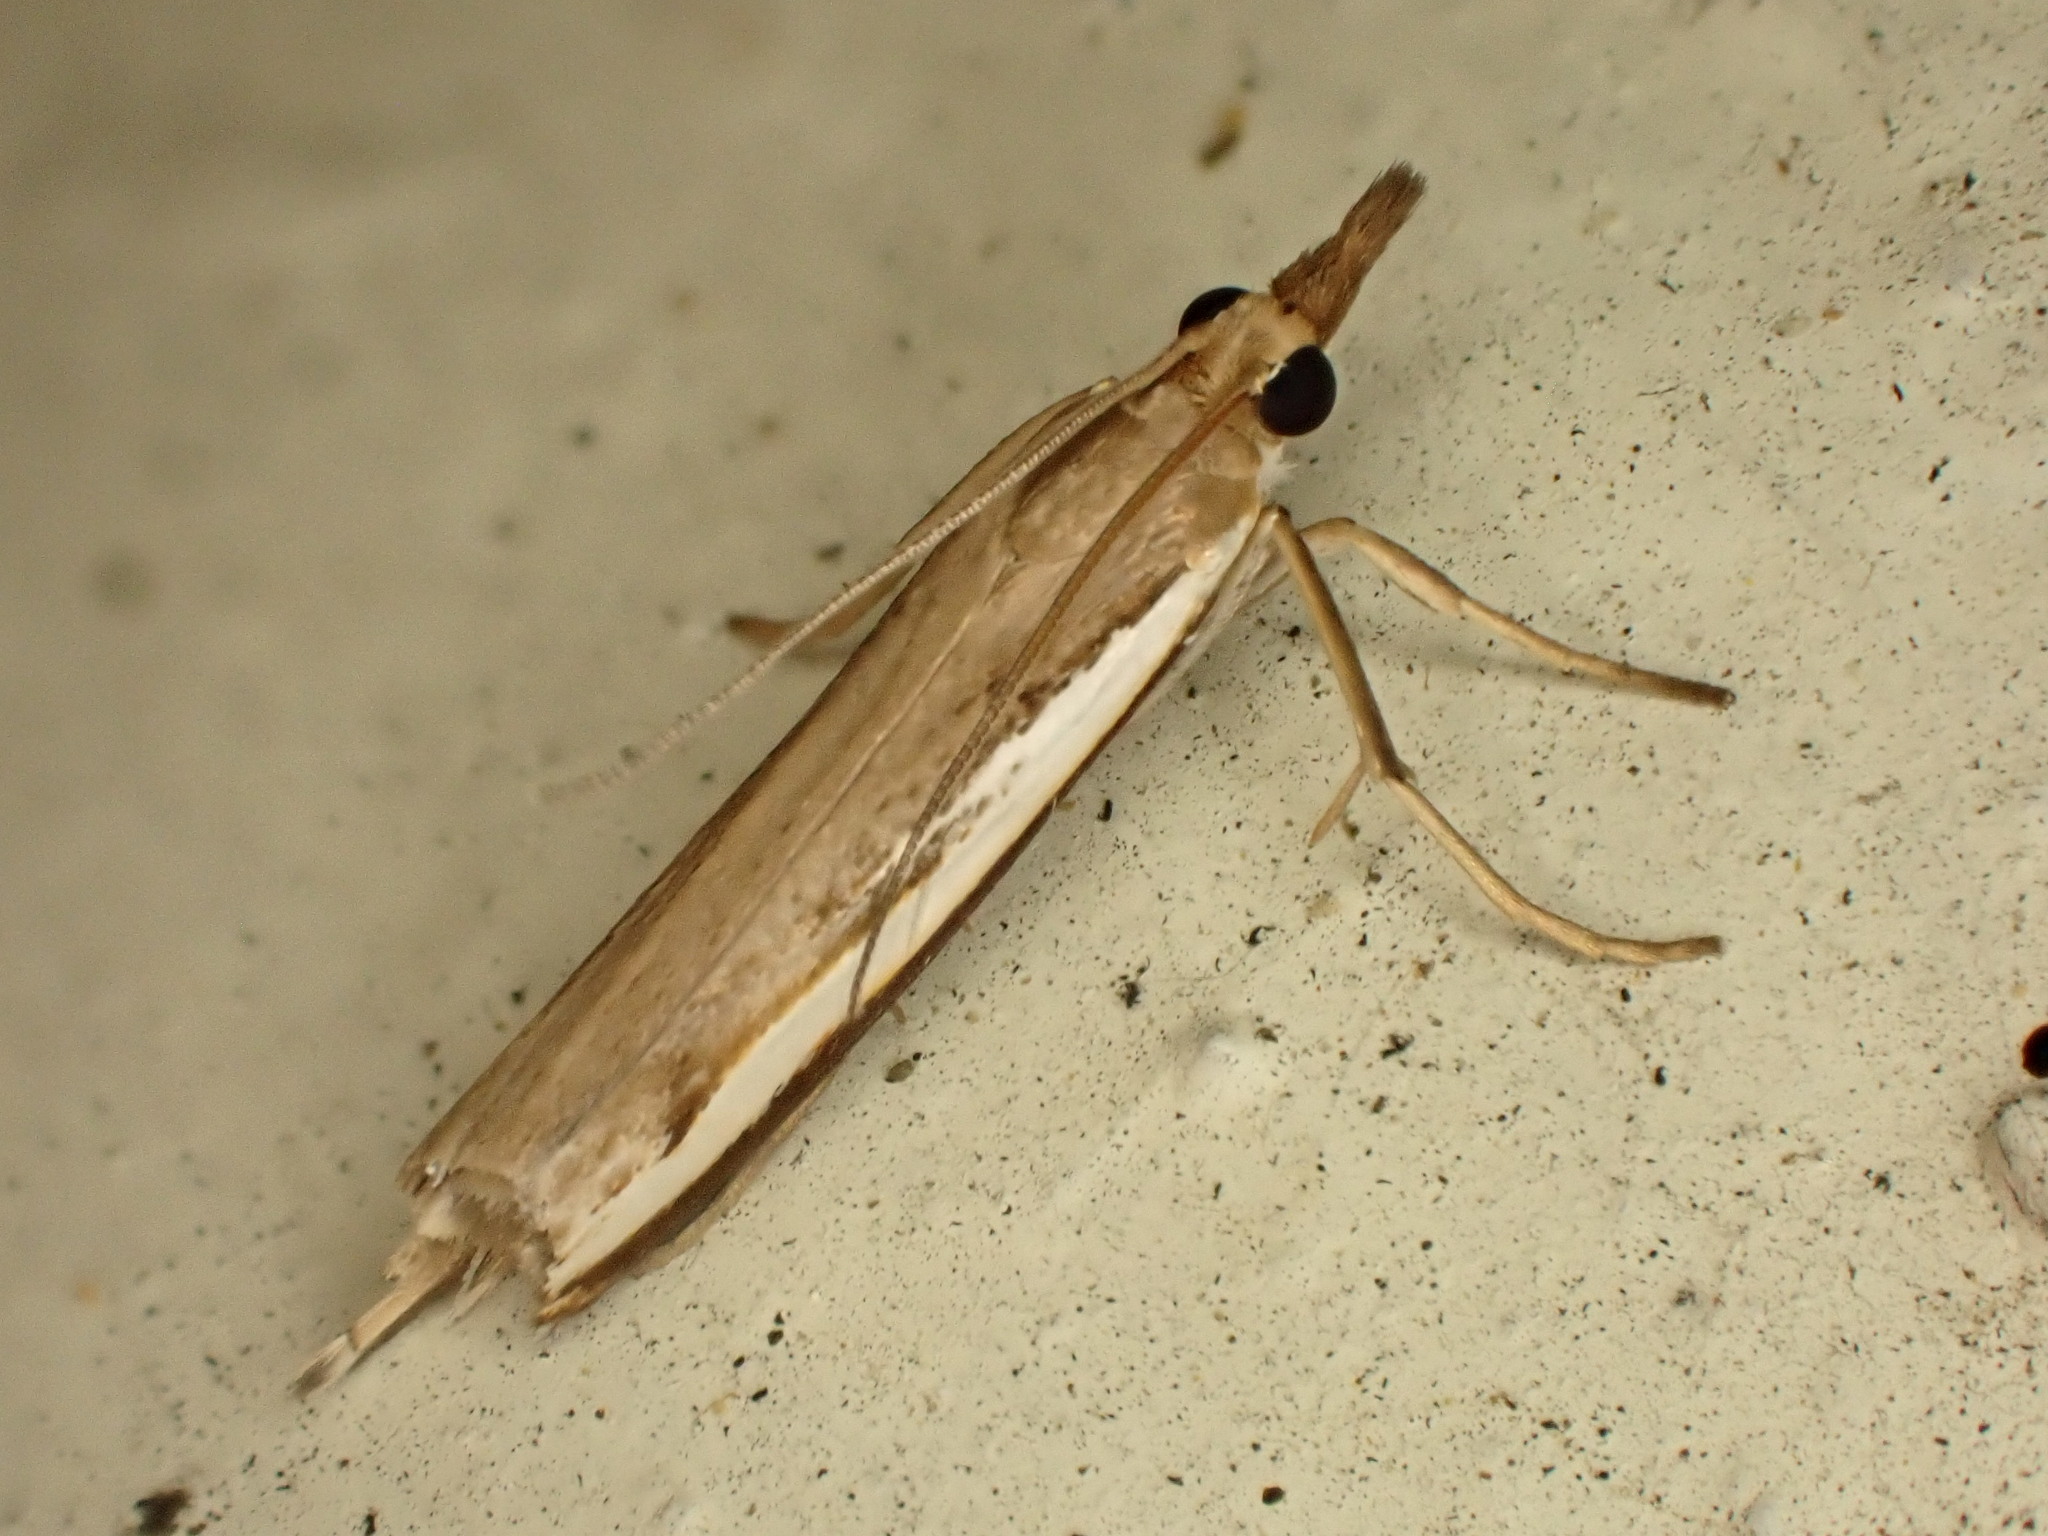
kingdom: Animalia
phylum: Arthropoda
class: Insecta
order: Lepidoptera
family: Crambidae
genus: Orocrambus
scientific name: Orocrambus flexuosellus
